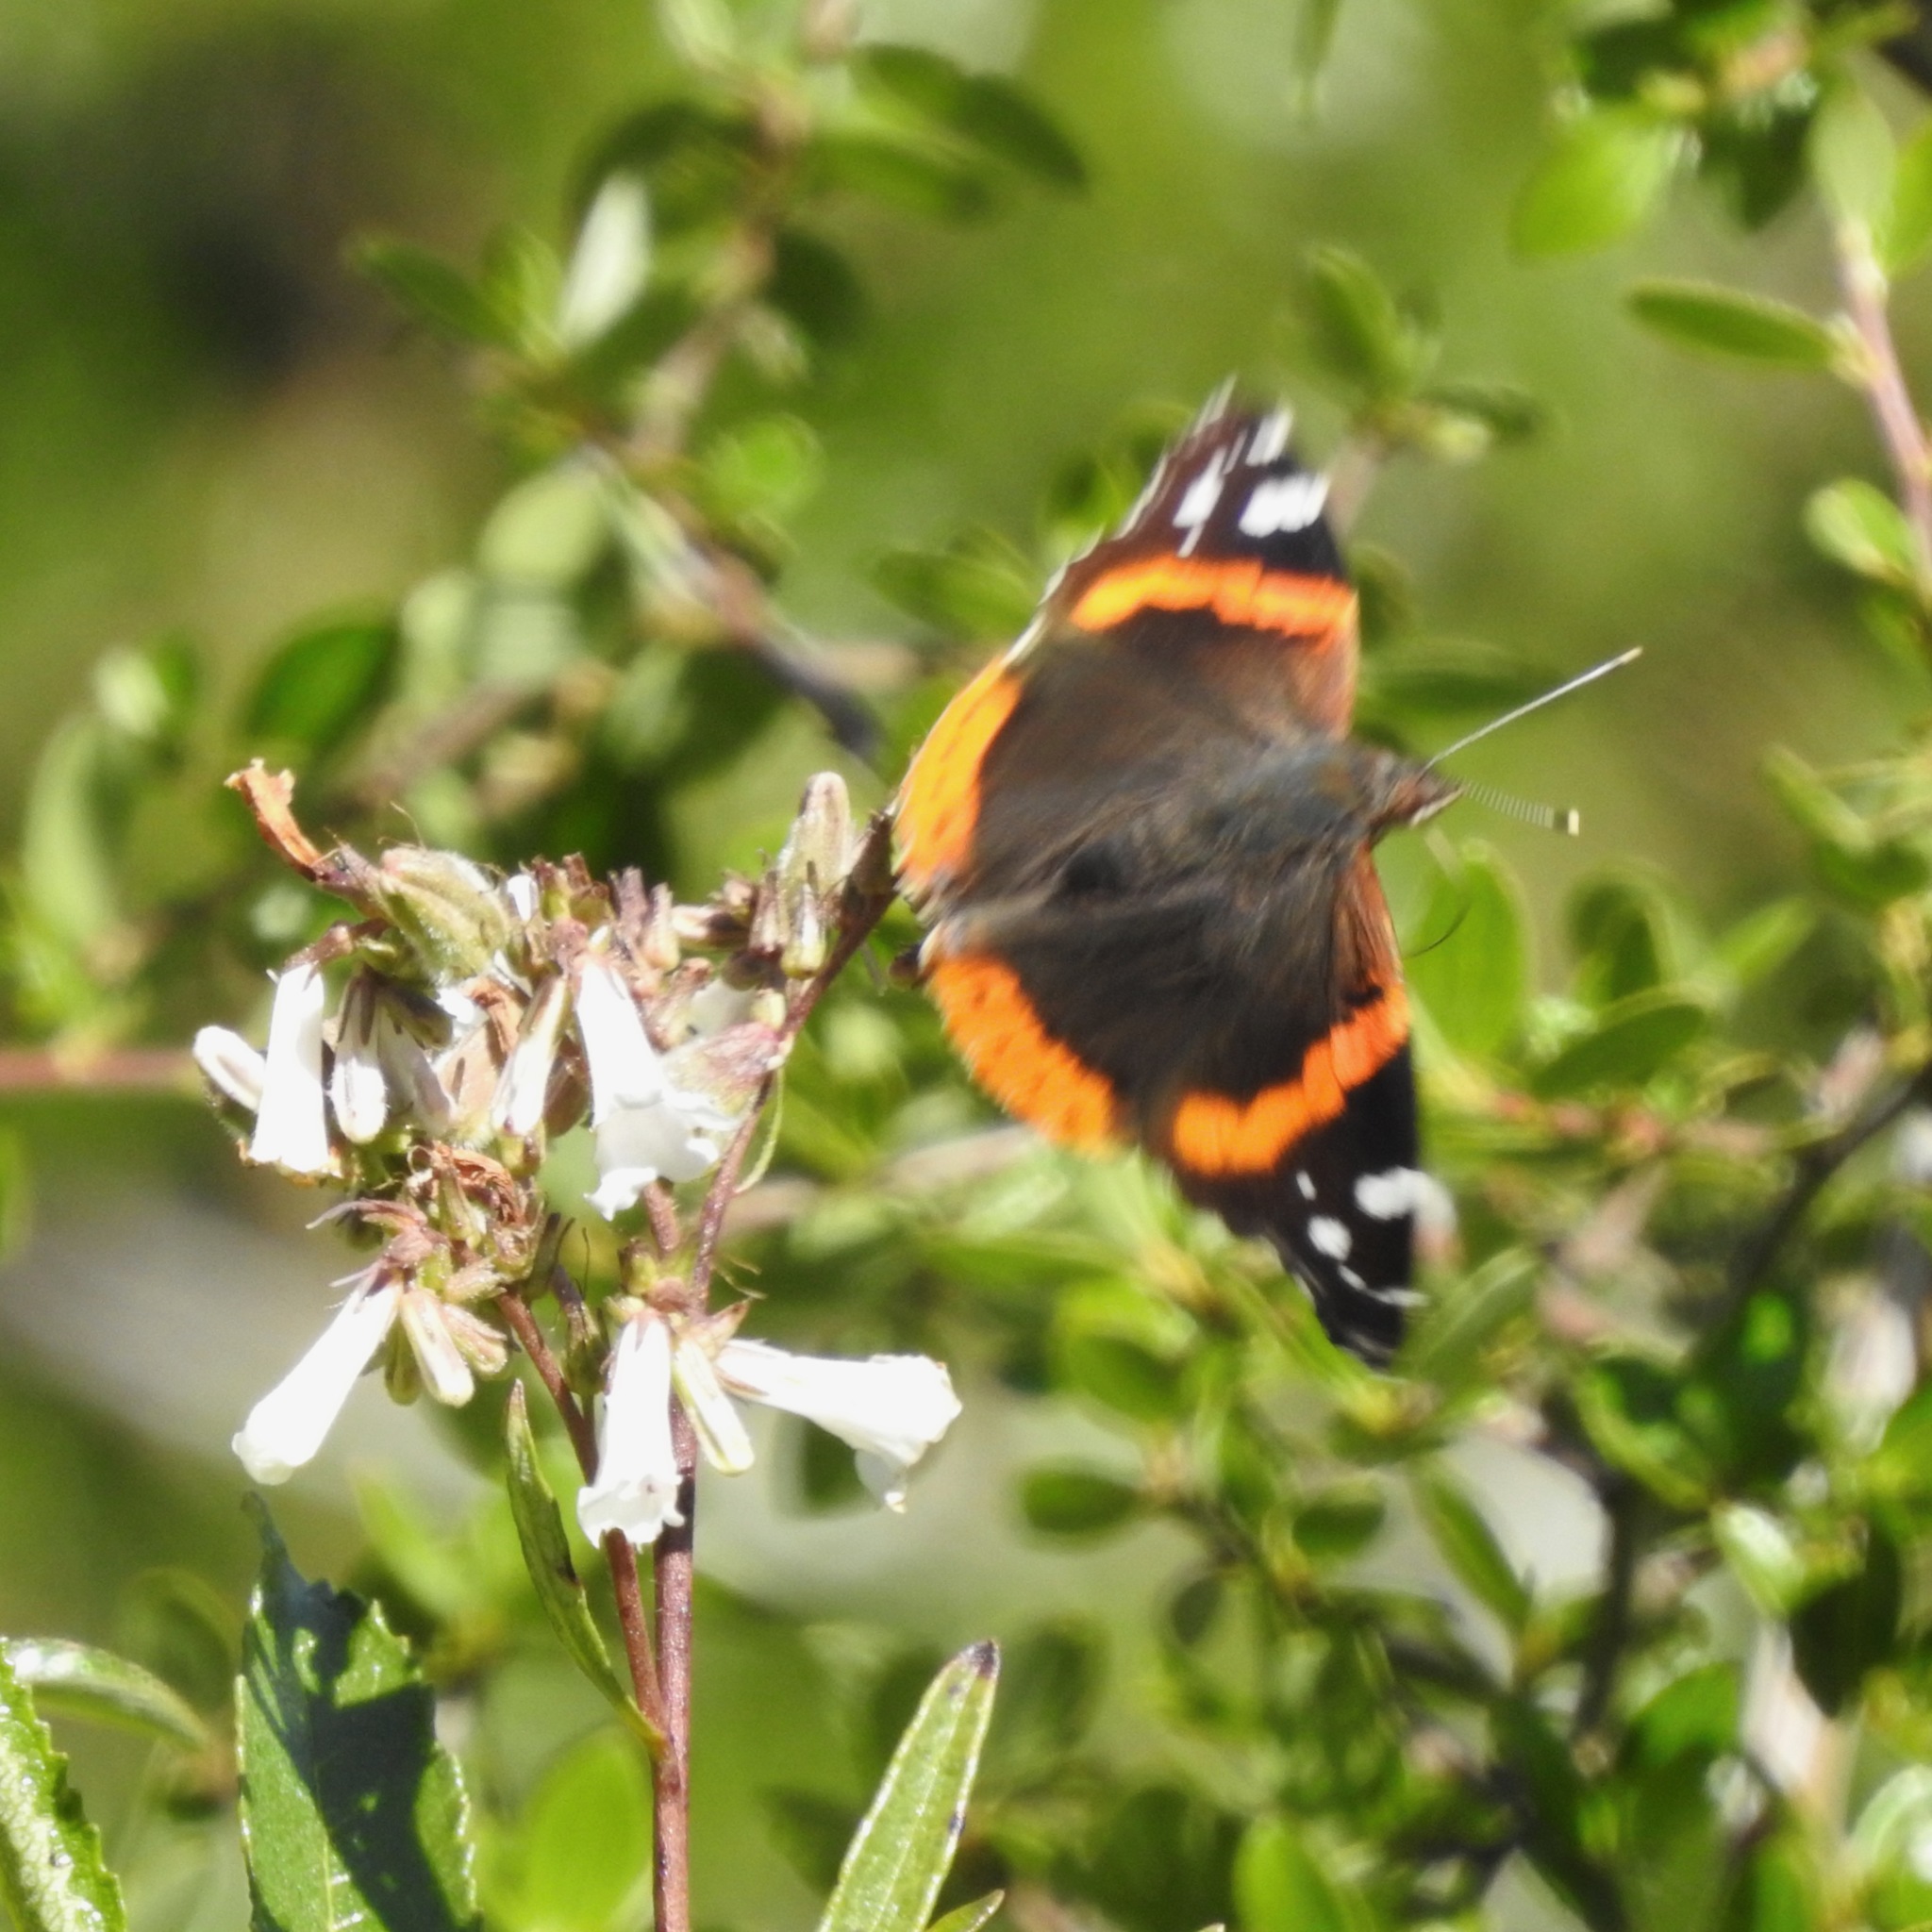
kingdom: Animalia
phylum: Arthropoda
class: Insecta
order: Lepidoptera
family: Nymphalidae
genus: Vanessa
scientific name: Vanessa atalanta
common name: Red admiral
